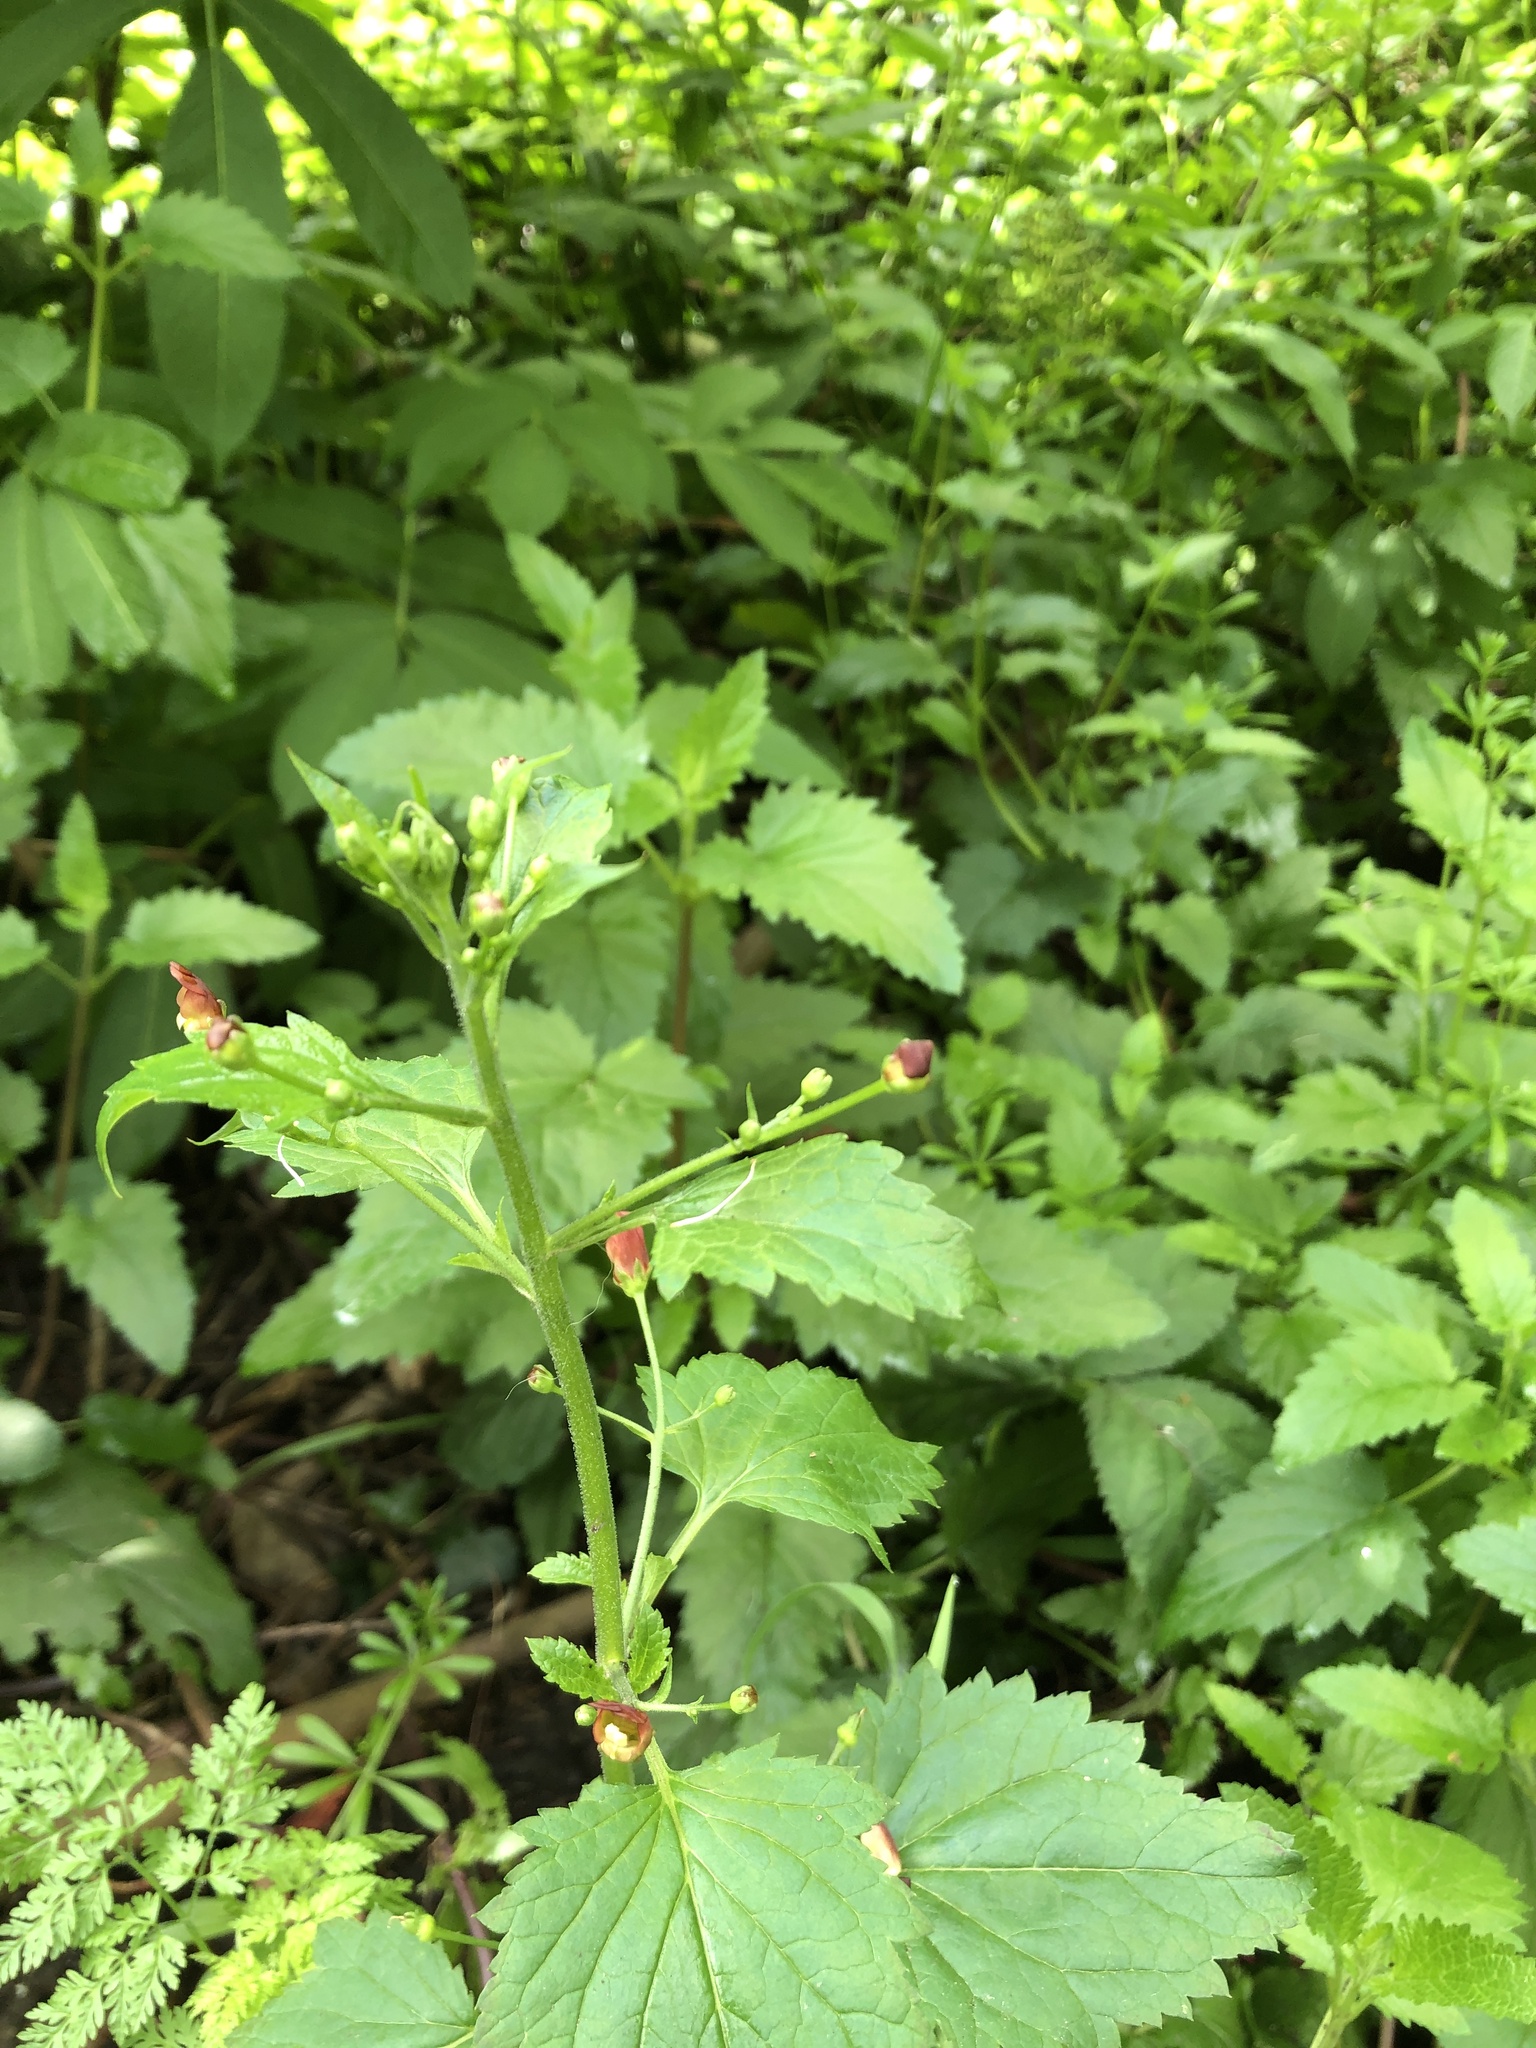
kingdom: Plantae
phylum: Tracheophyta
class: Magnoliopsida
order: Lamiales
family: Scrophulariaceae
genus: Scrophularia
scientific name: Scrophularia californica
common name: California figwort
